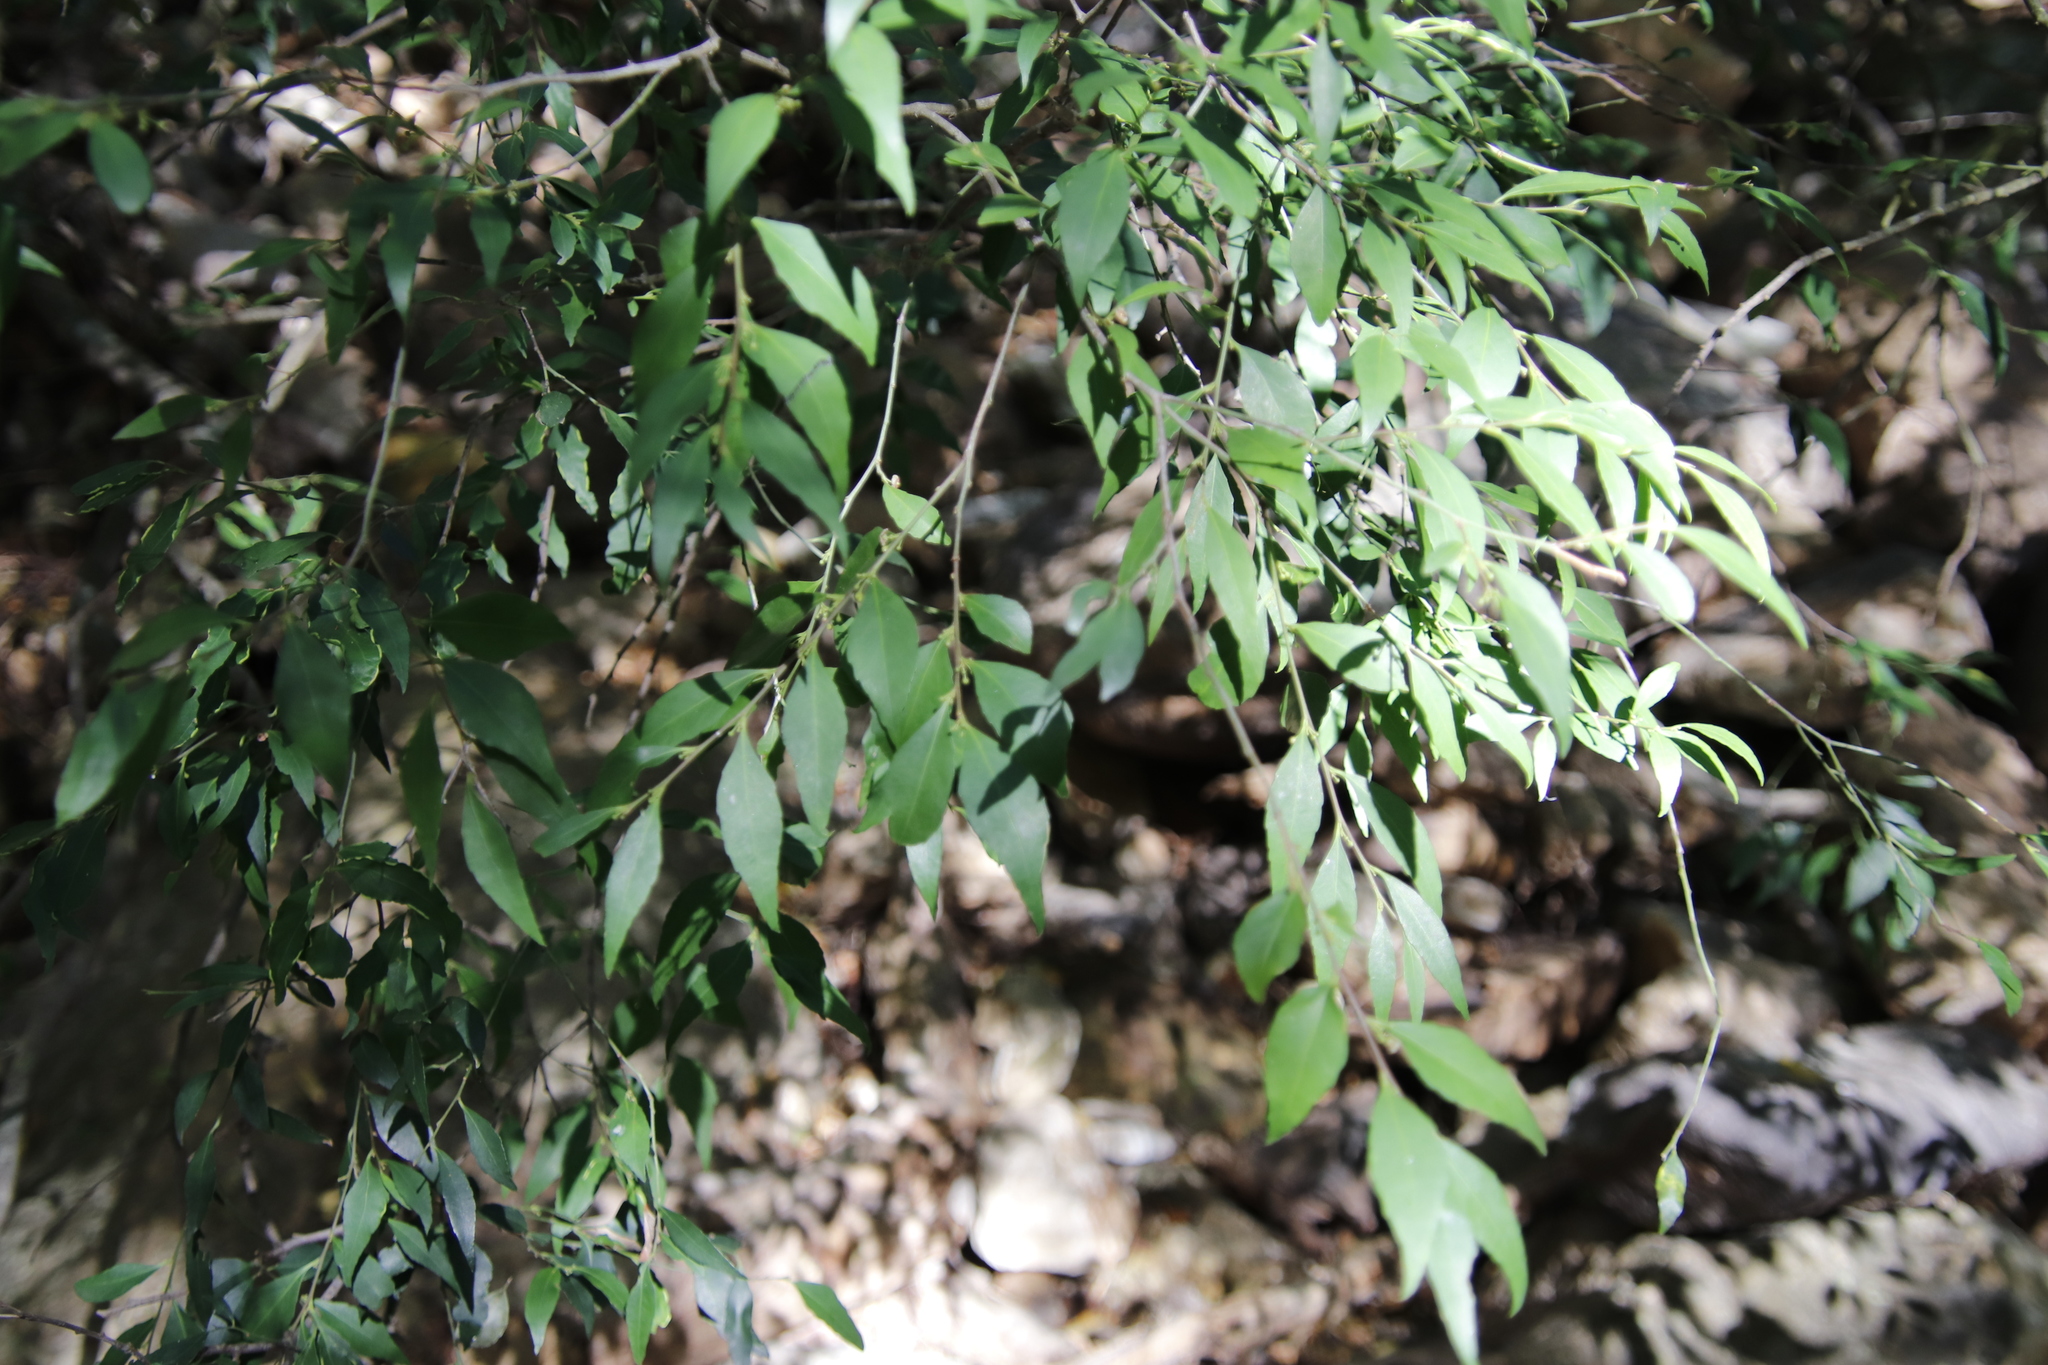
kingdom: Plantae
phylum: Tracheophyta
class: Magnoliopsida
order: Celastrales
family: Celastraceae
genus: Gymnosporia
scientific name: Gymnosporia acuminata
